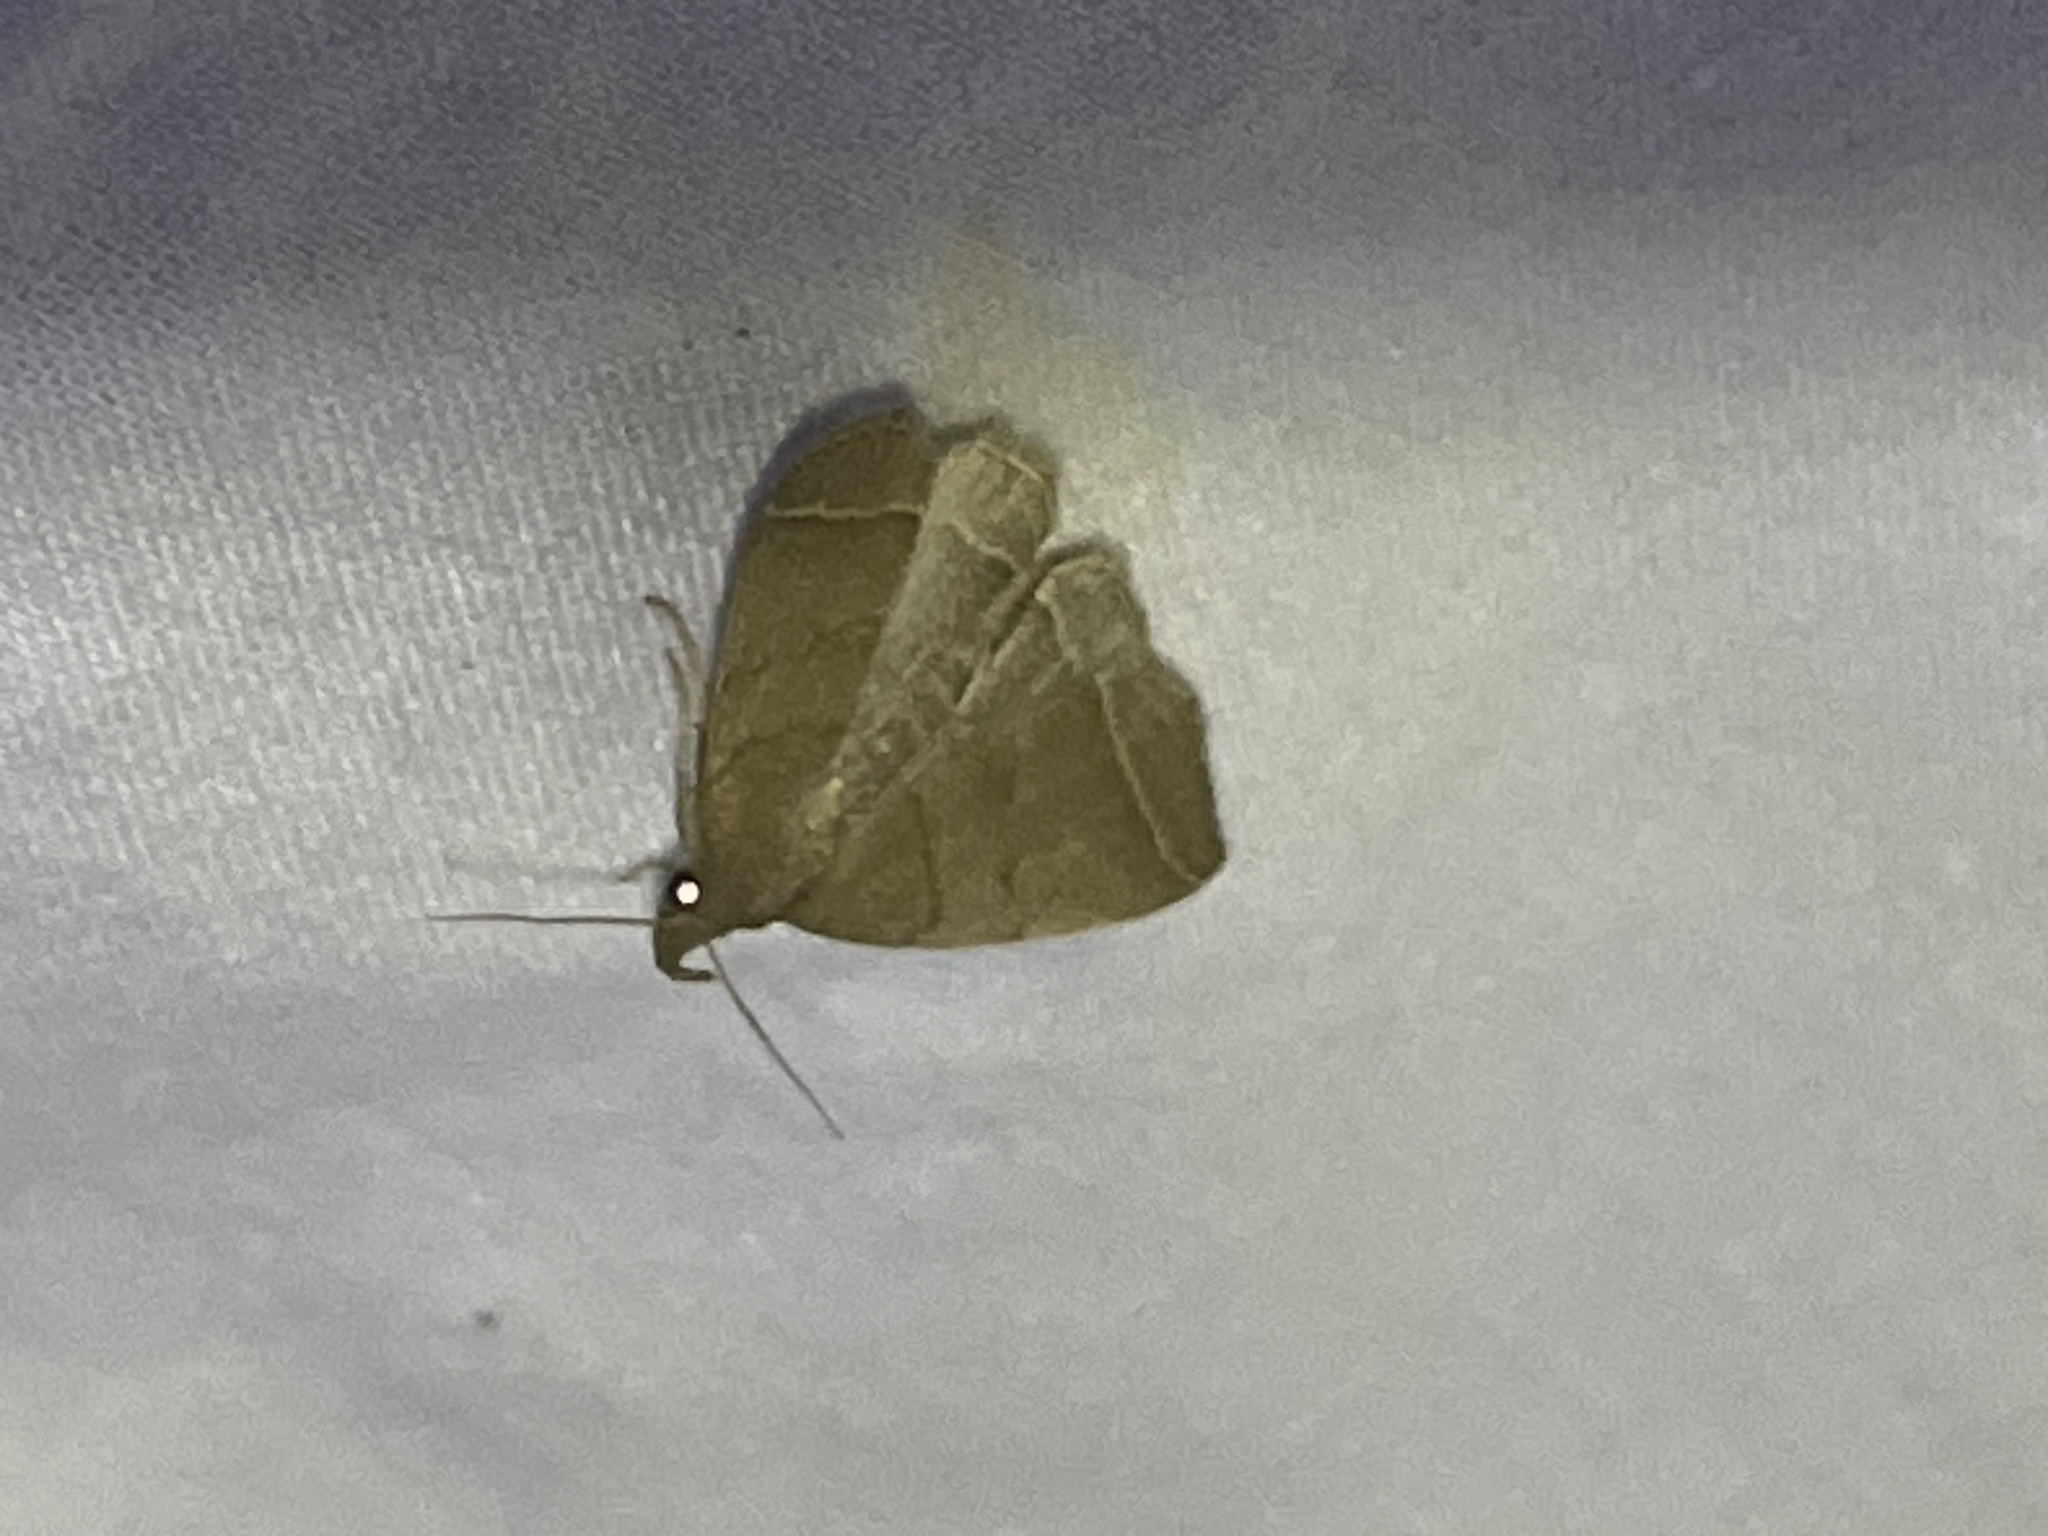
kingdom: Animalia
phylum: Arthropoda
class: Insecta
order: Lepidoptera
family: Erebidae
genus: Zanclognatha
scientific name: Zanclognatha marcidilinea
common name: Yellowish fan-foot
